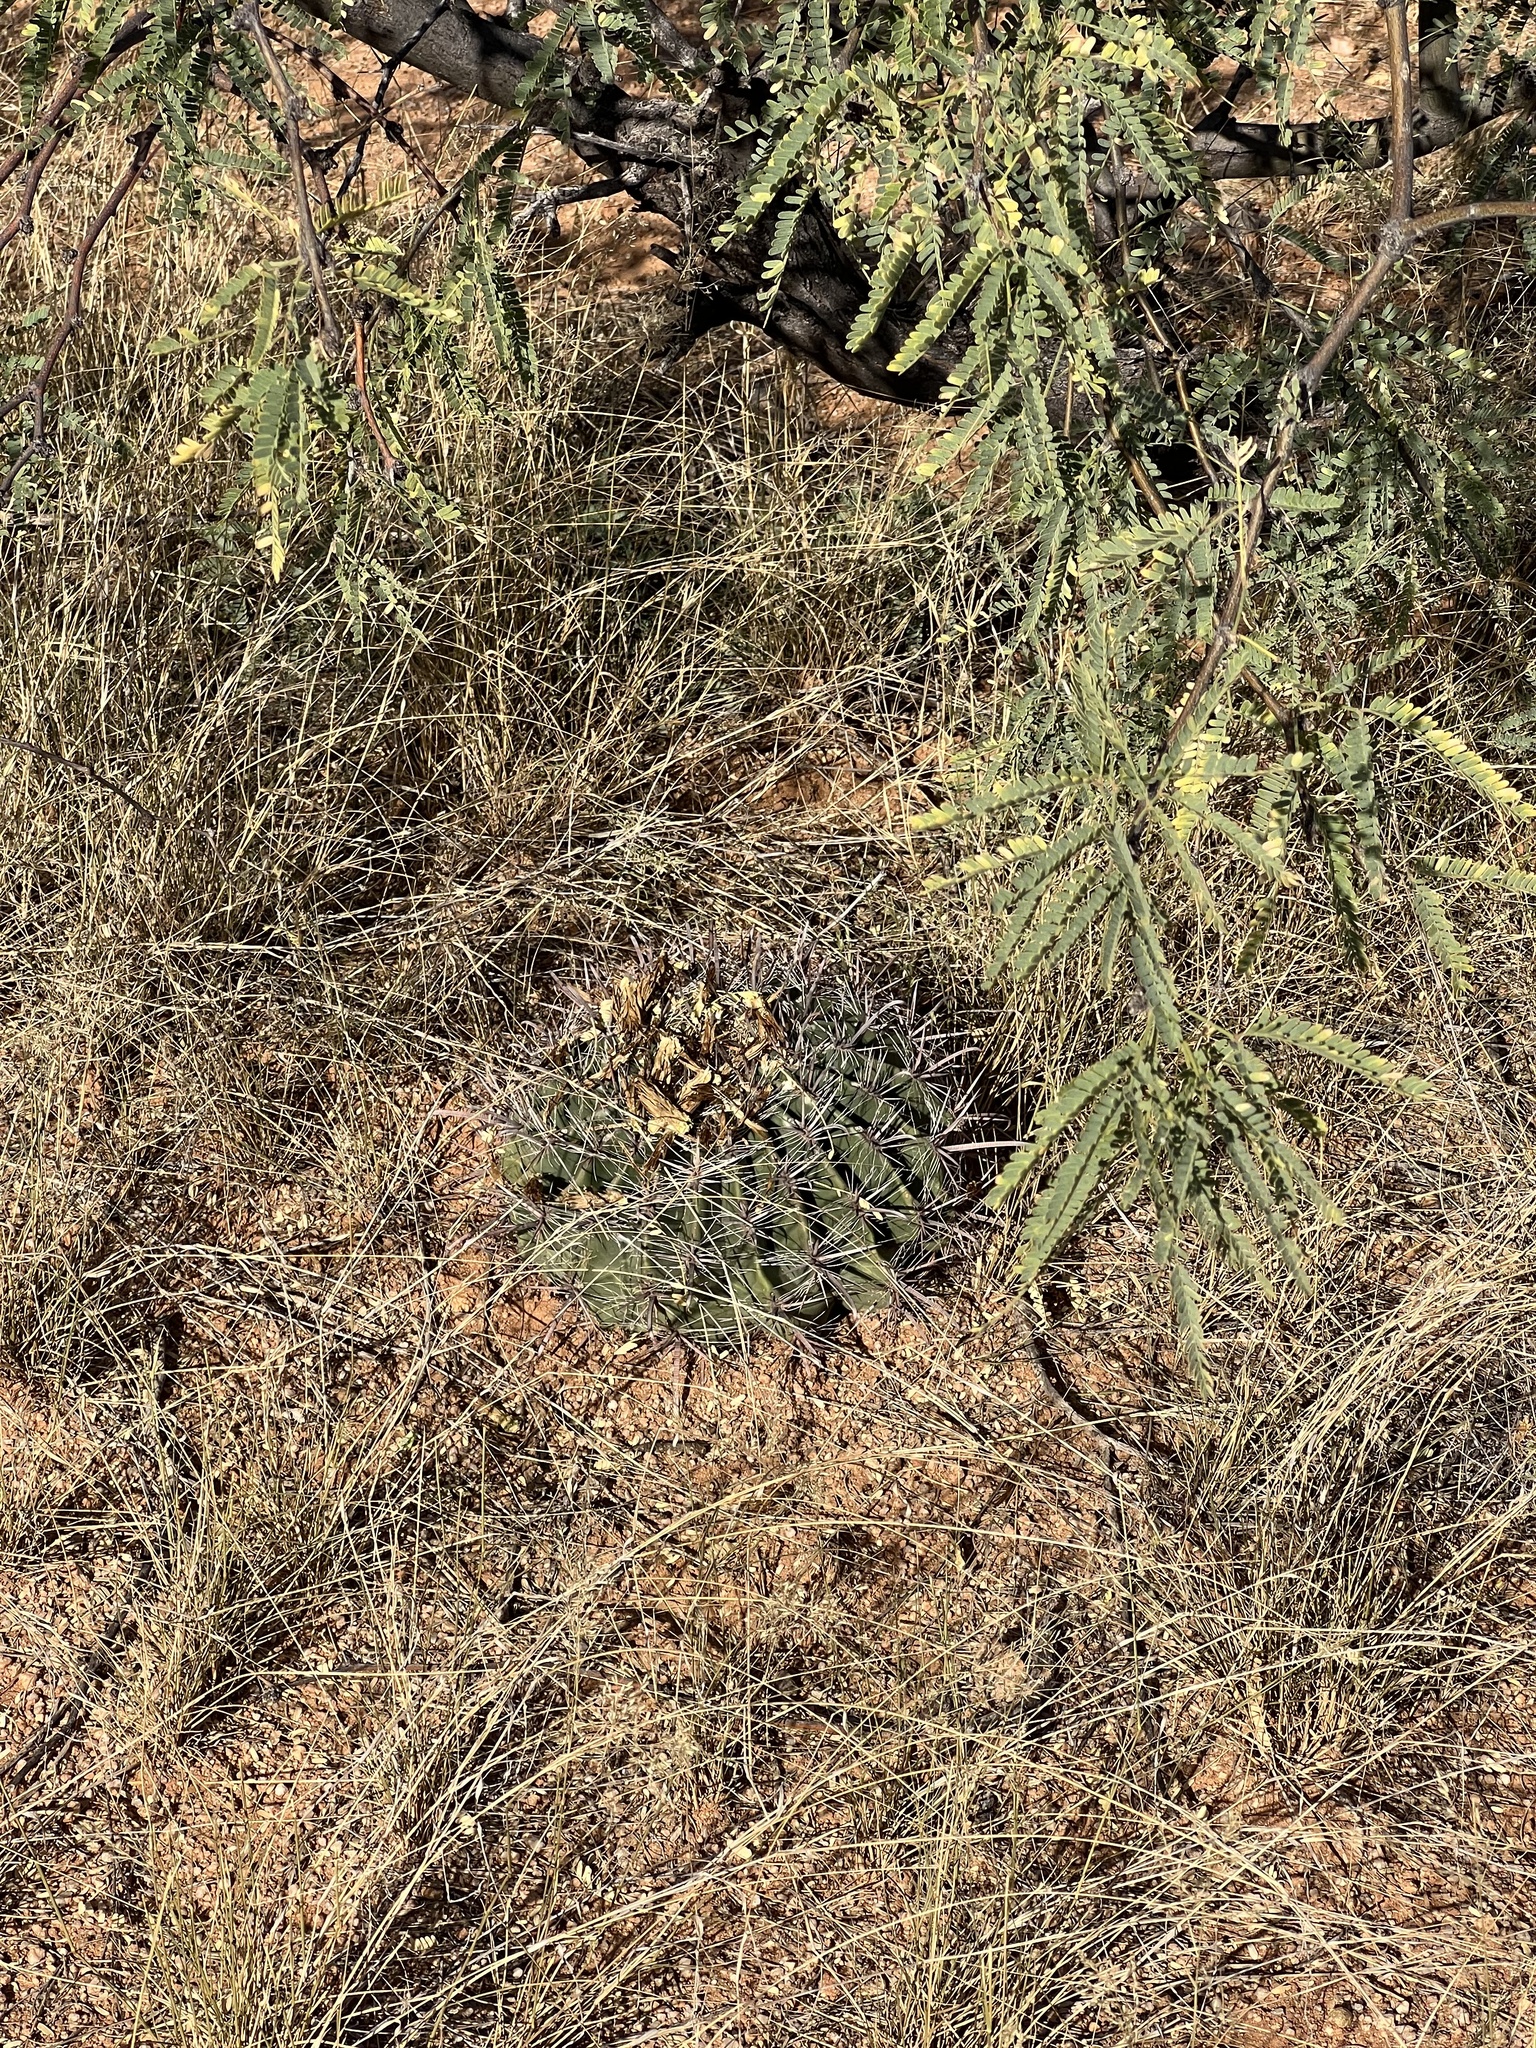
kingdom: Plantae
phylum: Tracheophyta
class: Magnoliopsida
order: Caryophyllales
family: Cactaceae
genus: Ferocactus
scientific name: Ferocactus wislizeni
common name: Candy barrel cactus
